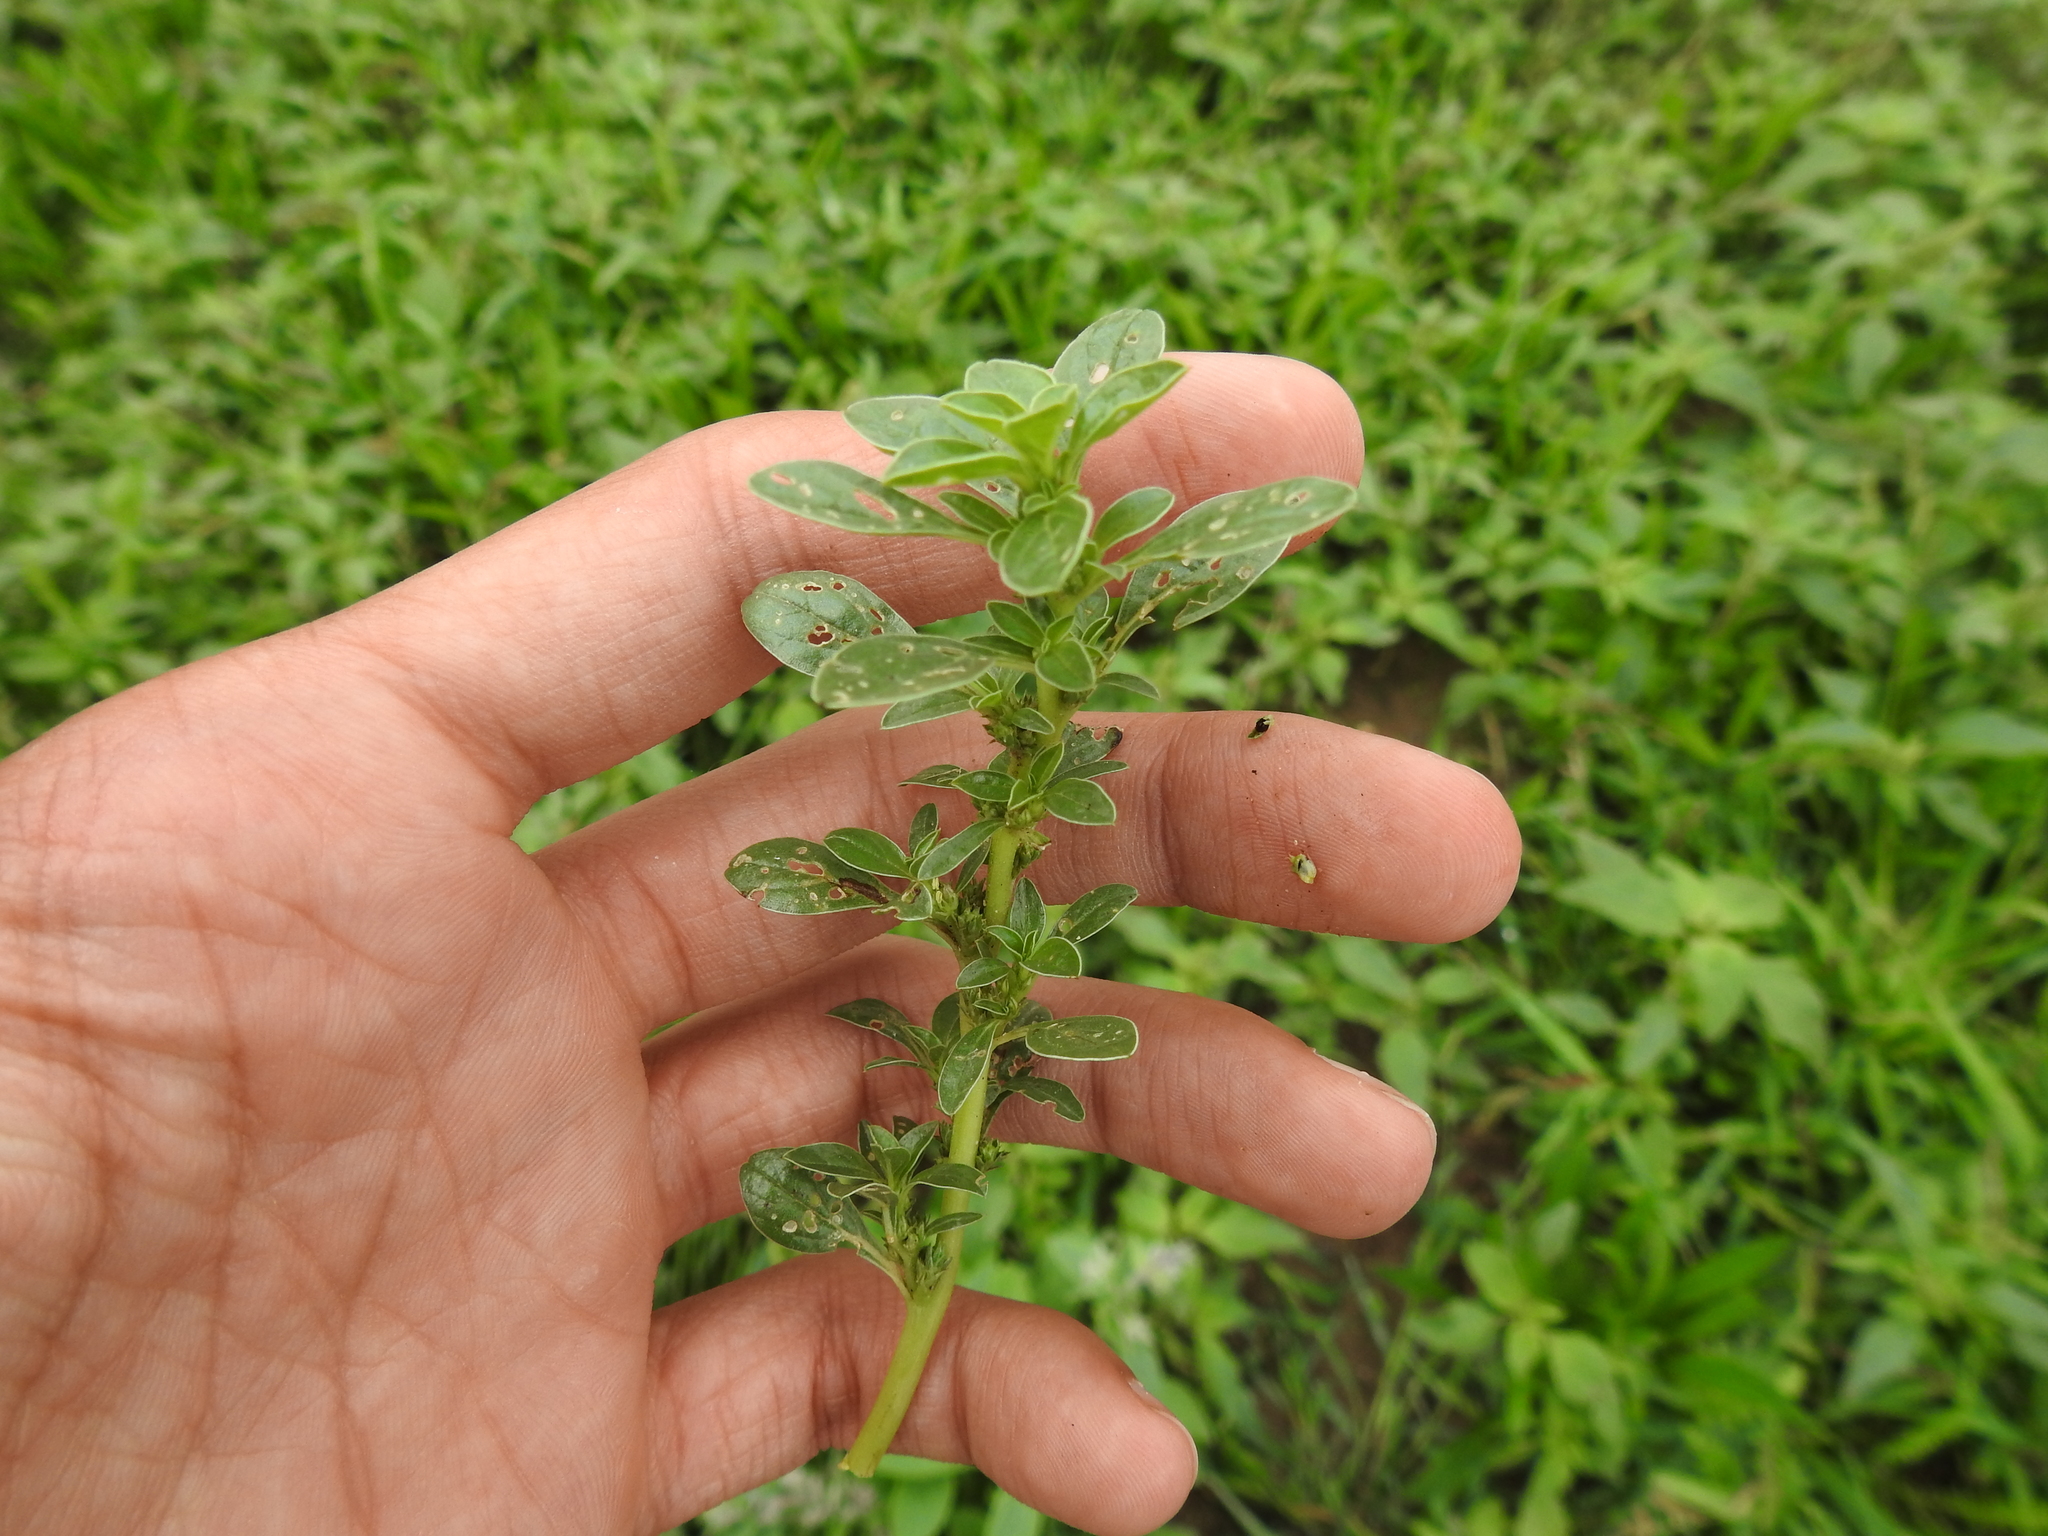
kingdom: Plantae
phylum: Tracheophyta
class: Magnoliopsida
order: Caryophyllales
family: Amaranthaceae
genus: Amaranthus
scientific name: Amaranthus blitoides
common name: Prostrate pigweed
